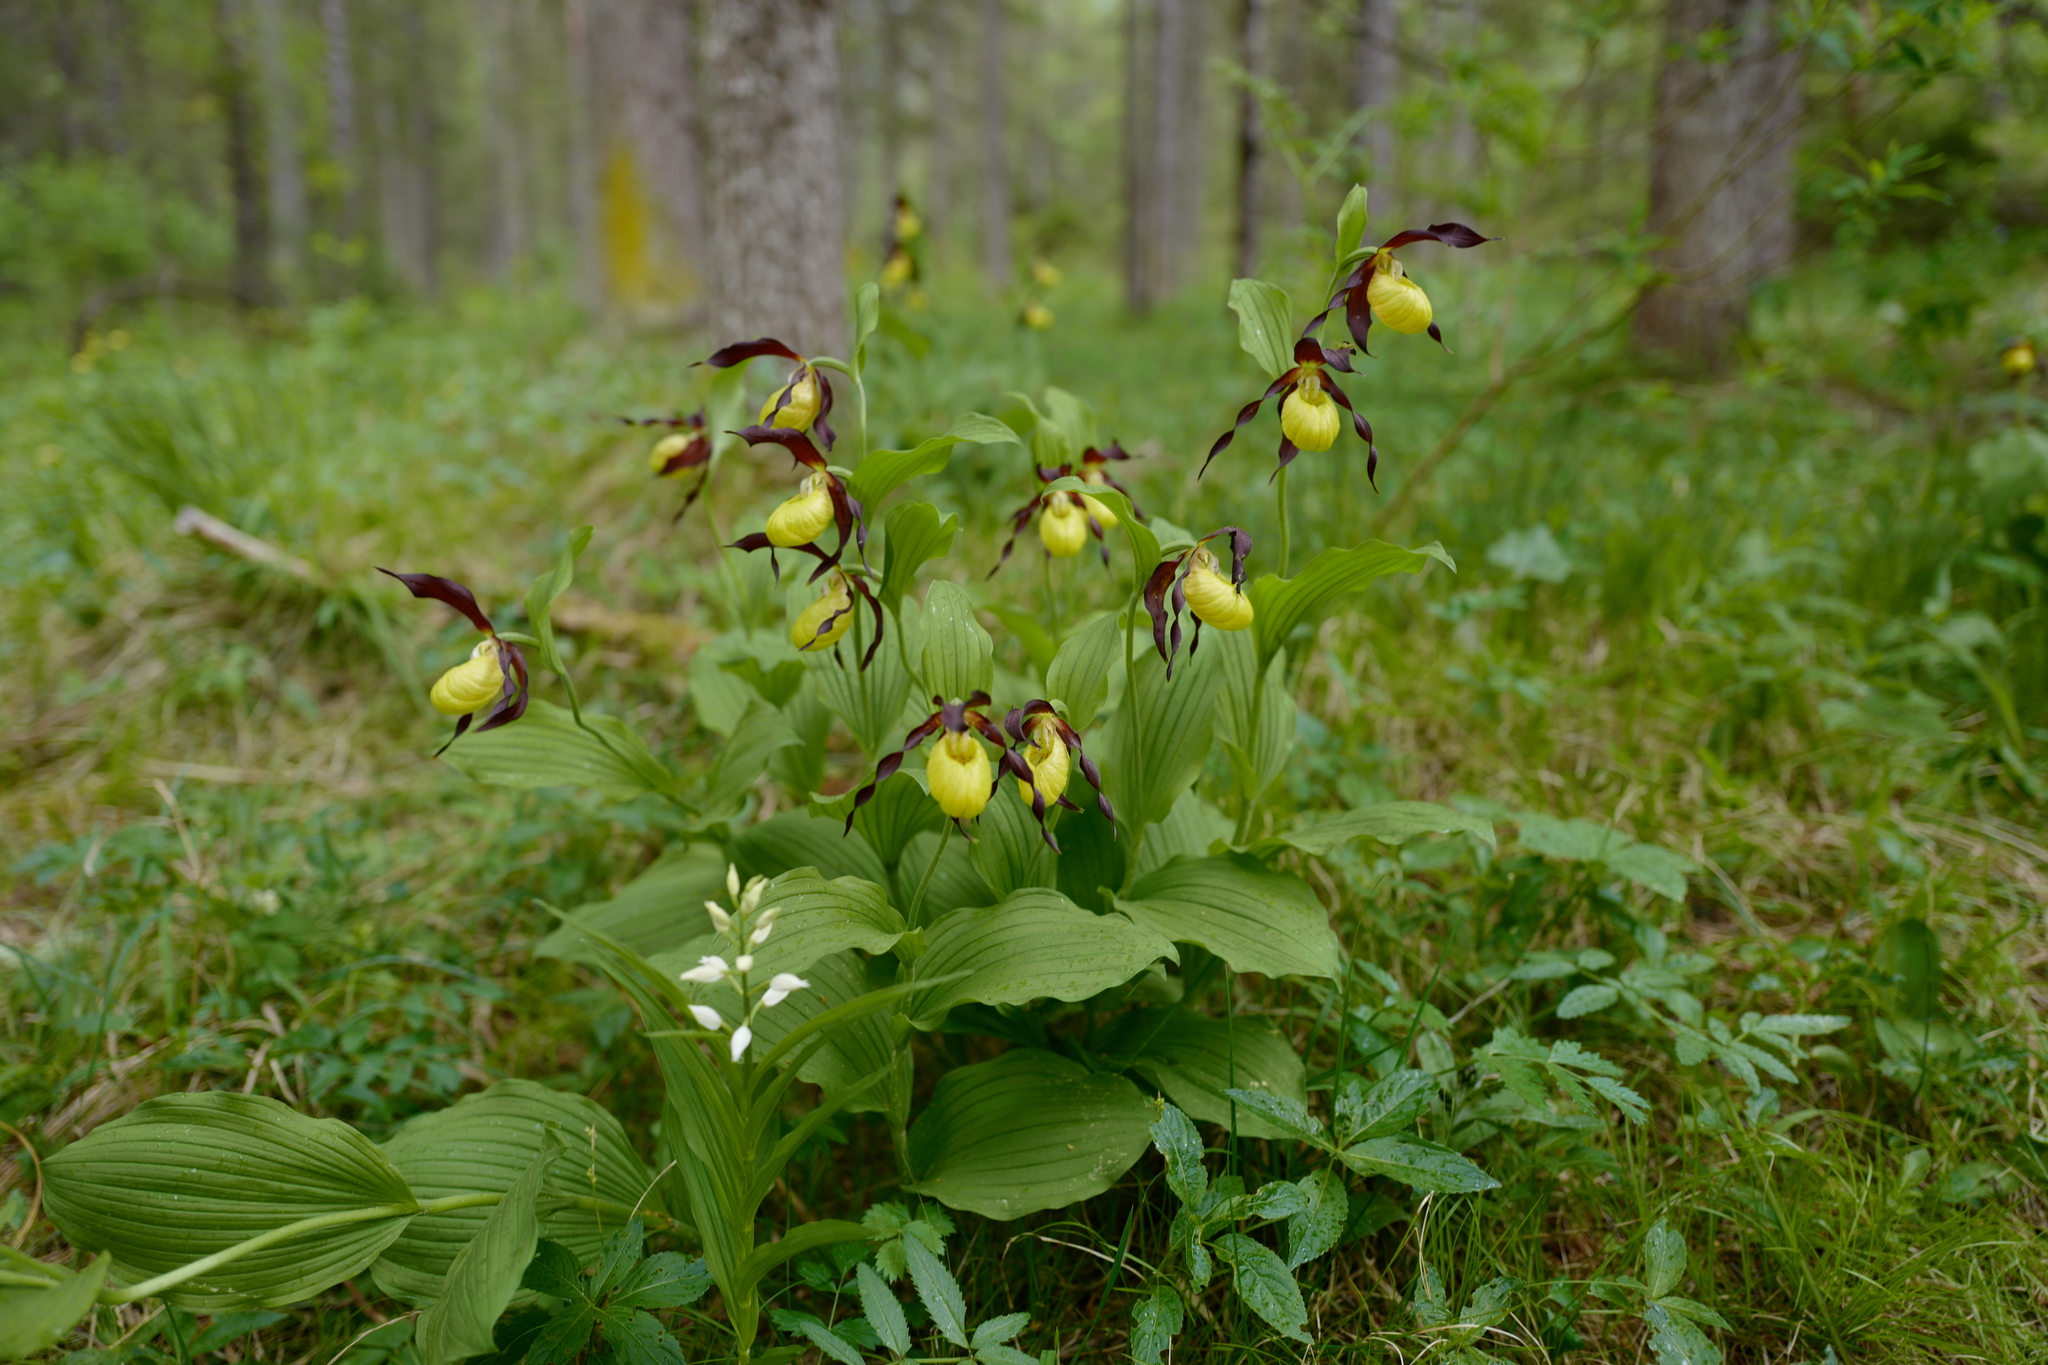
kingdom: Plantae
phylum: Tracheophyta
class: Liliopsida
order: Asparagales
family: Orchidaceae
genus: Cypripedium
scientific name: Cypripedium calceolus
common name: Lady's-slipper
